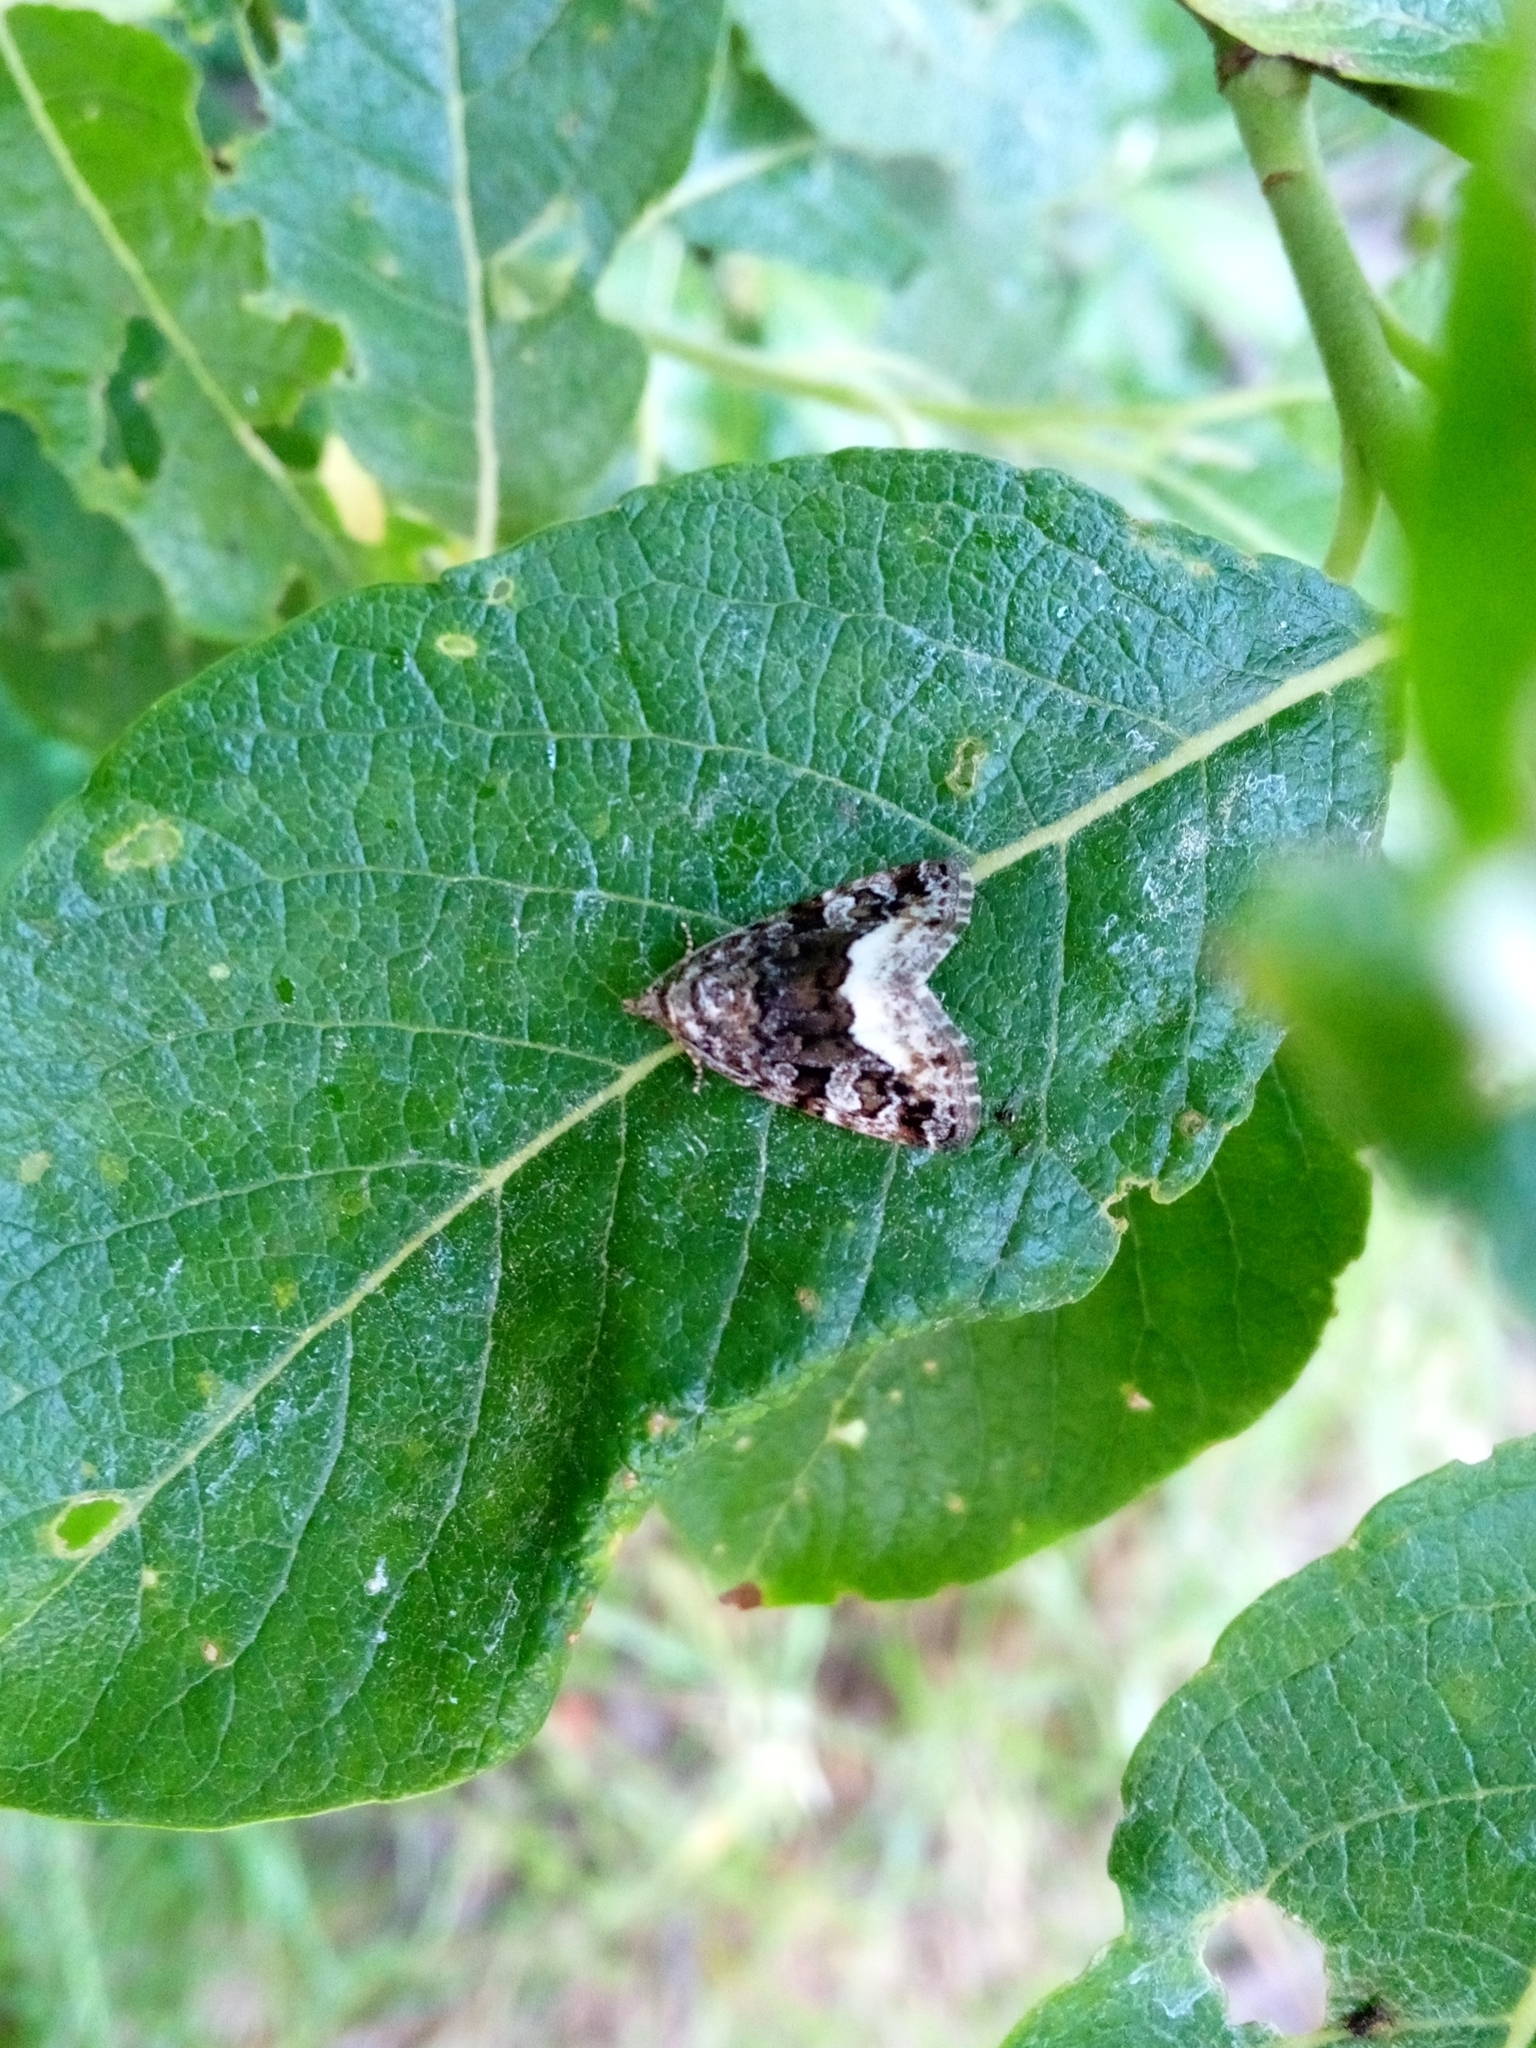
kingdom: Animalia
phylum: Arthropoda
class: Insecta
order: Lepidoptera
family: Noctuidae
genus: Deltote
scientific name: Deltote pygarga
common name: Marbled white spot
